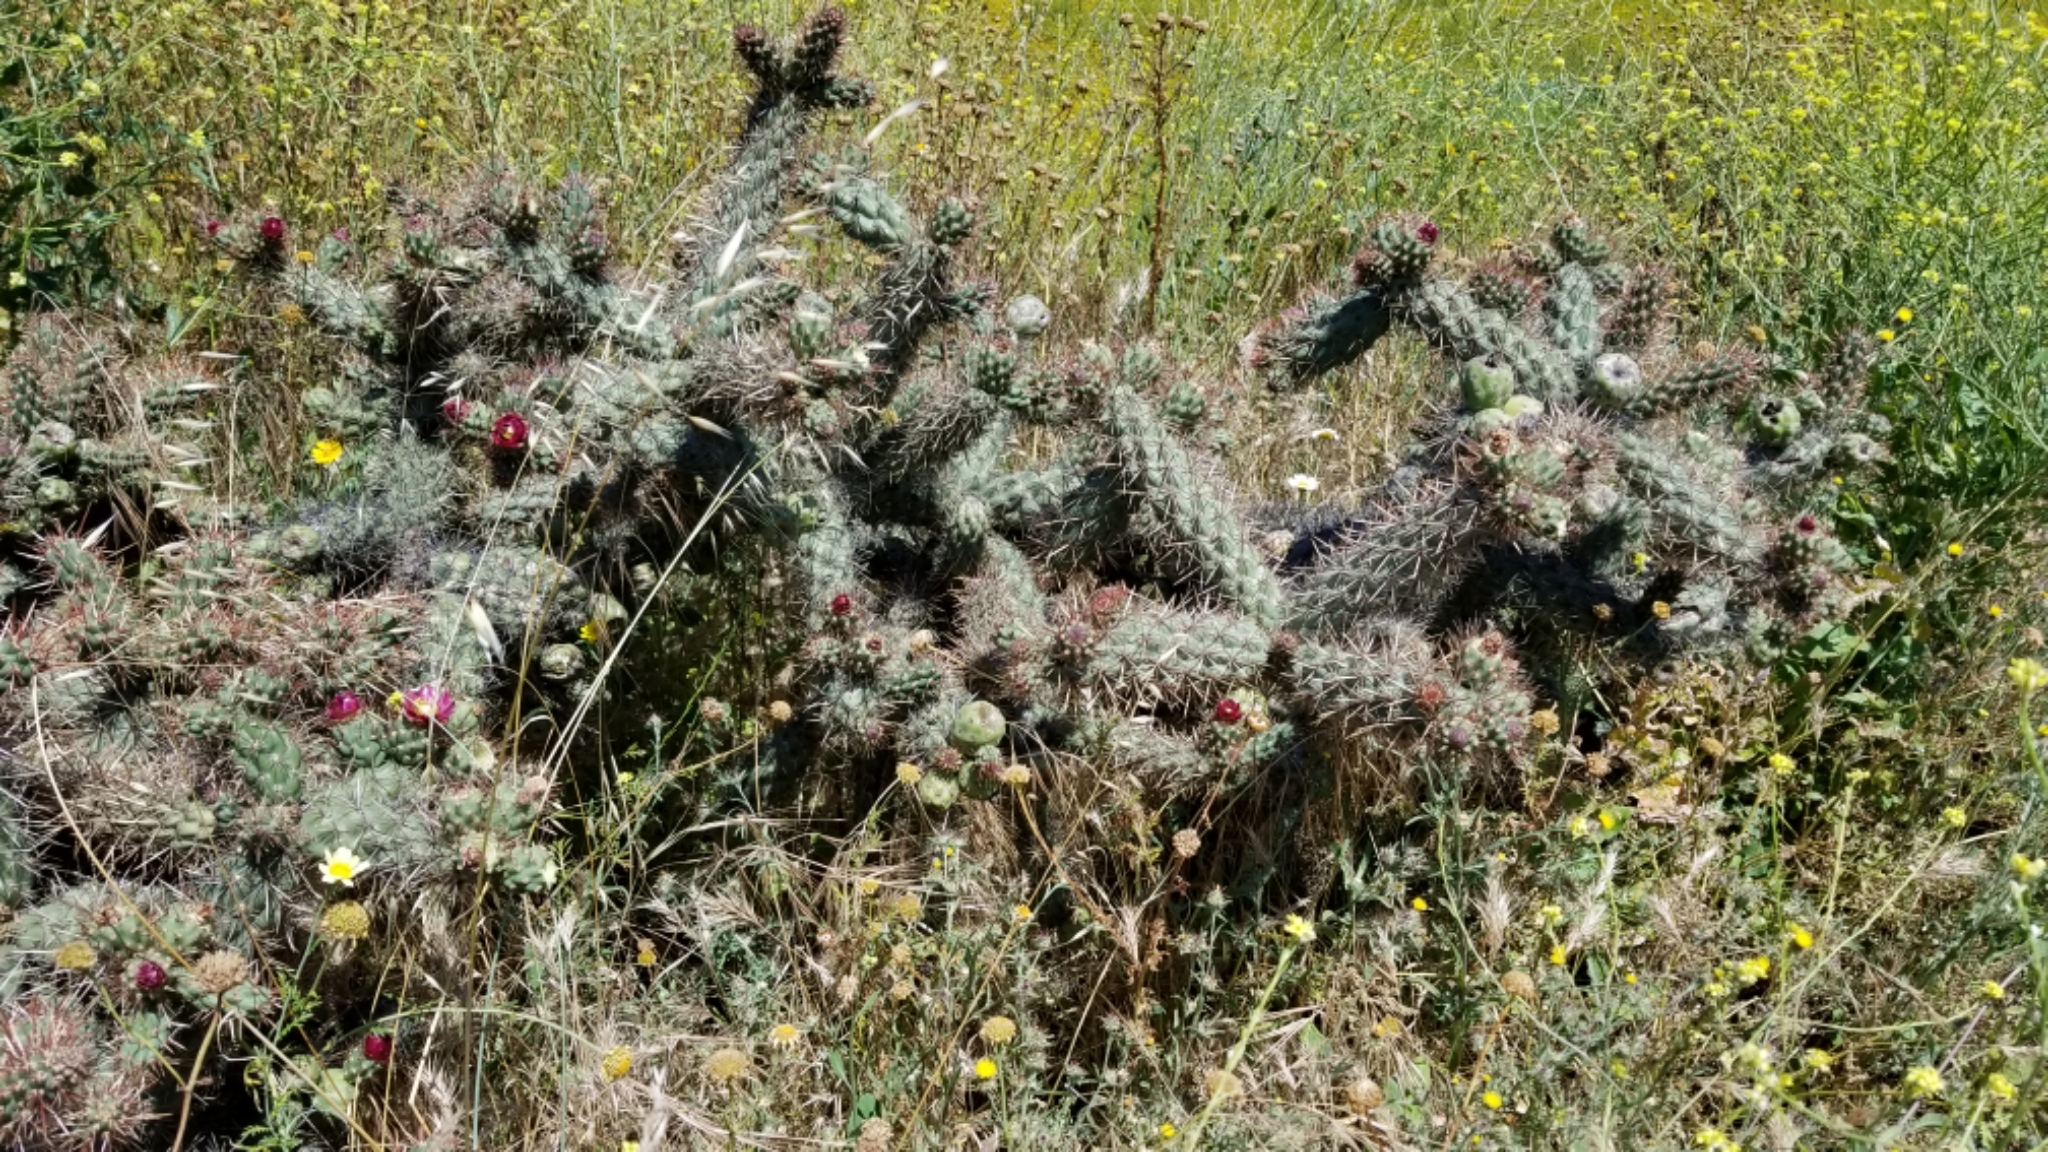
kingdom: Plantae
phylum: Tracheophyta
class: Magnoliopsida
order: Caryophyllales
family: Cactaceae
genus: Cylindropuntia
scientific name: Cylindropuntia prolifera
